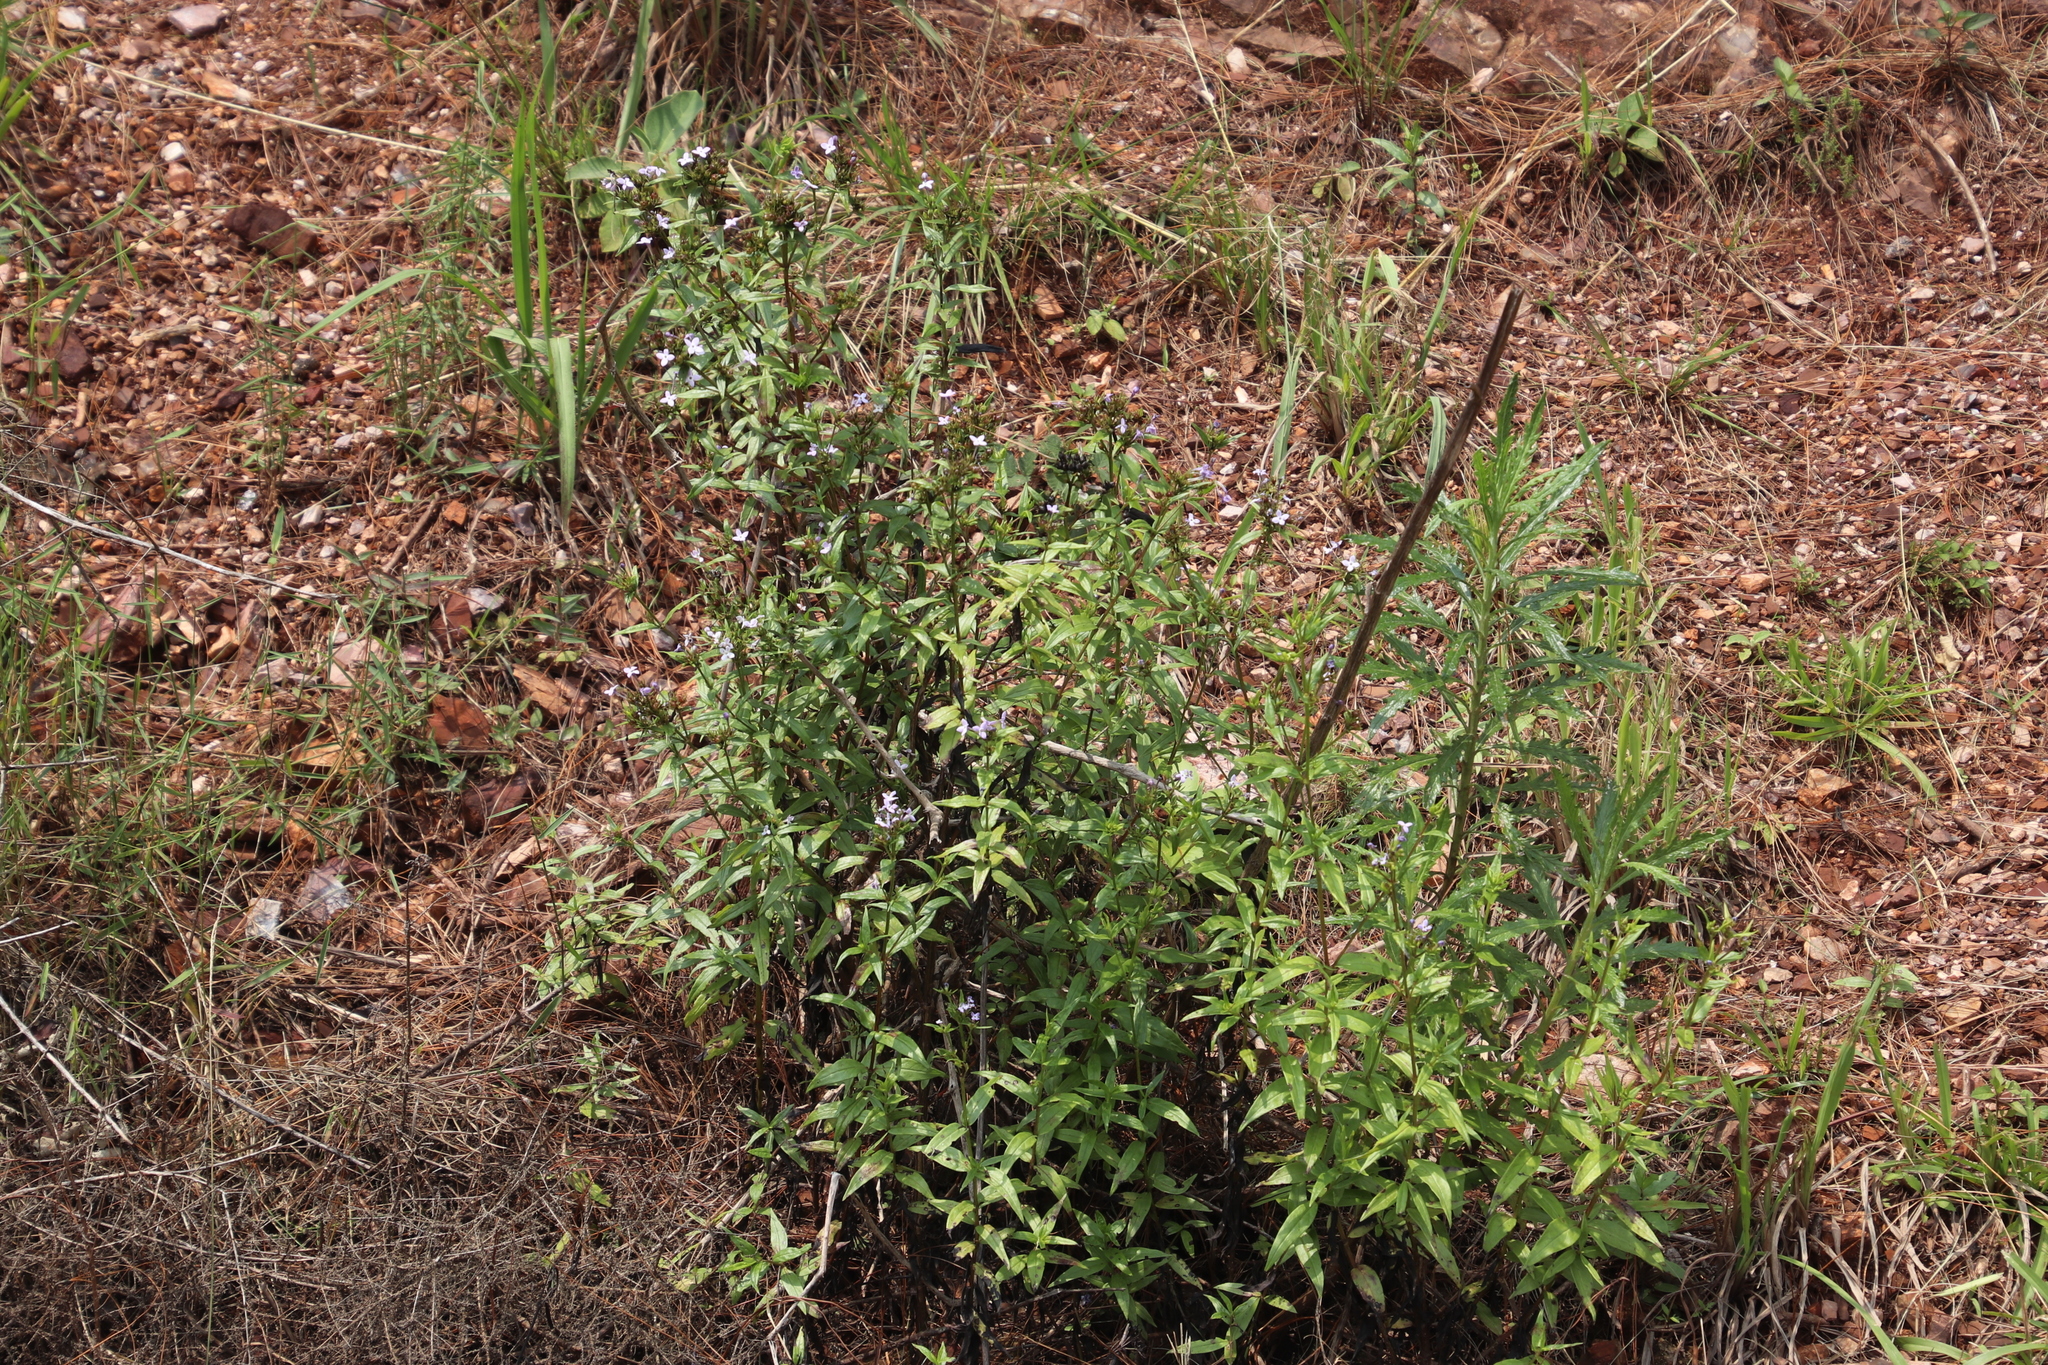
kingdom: Plantae
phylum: Tracheophyta
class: Magnoliopsida
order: Gentianales
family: Rubiaceae
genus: Conostomium
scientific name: Conostomium natalense
